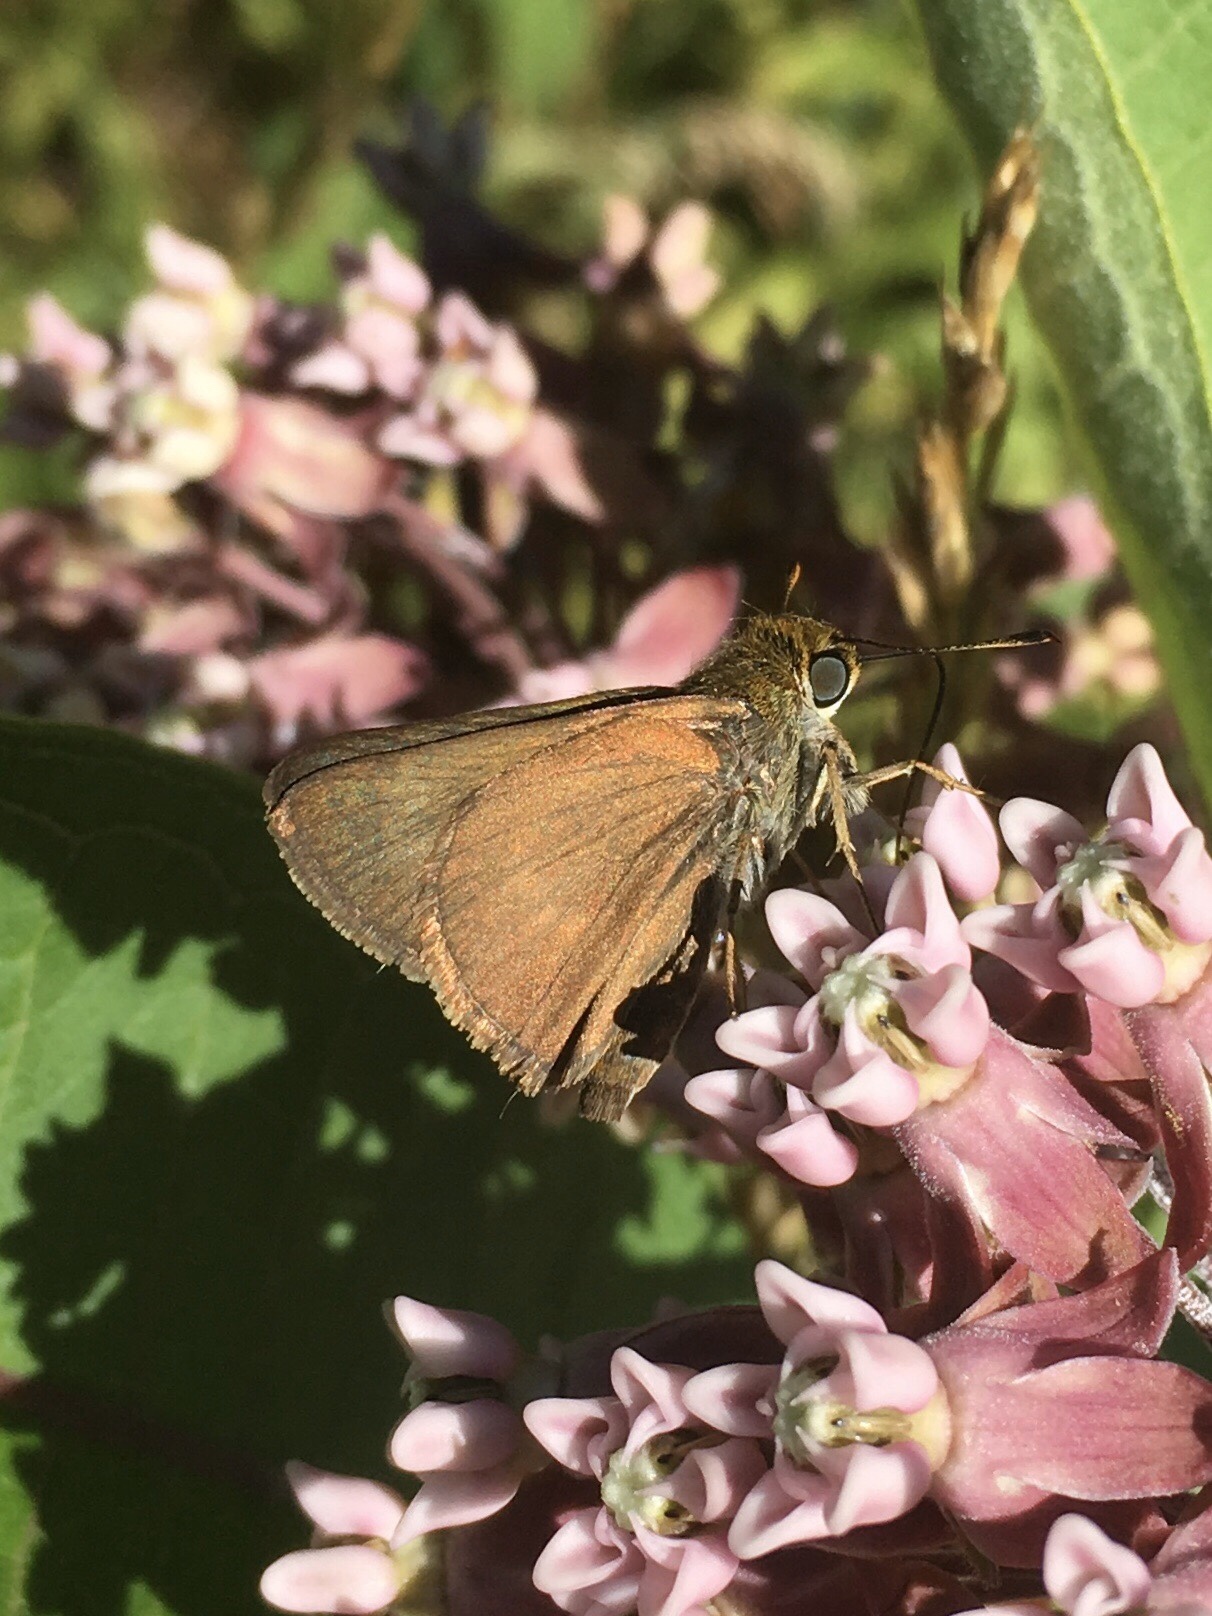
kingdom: Animalia
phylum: Arthropoda
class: Insecta
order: Lepidoptera
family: Hesperiidae
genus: Euphyes
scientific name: Euphyes vestris
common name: Dun skipper
